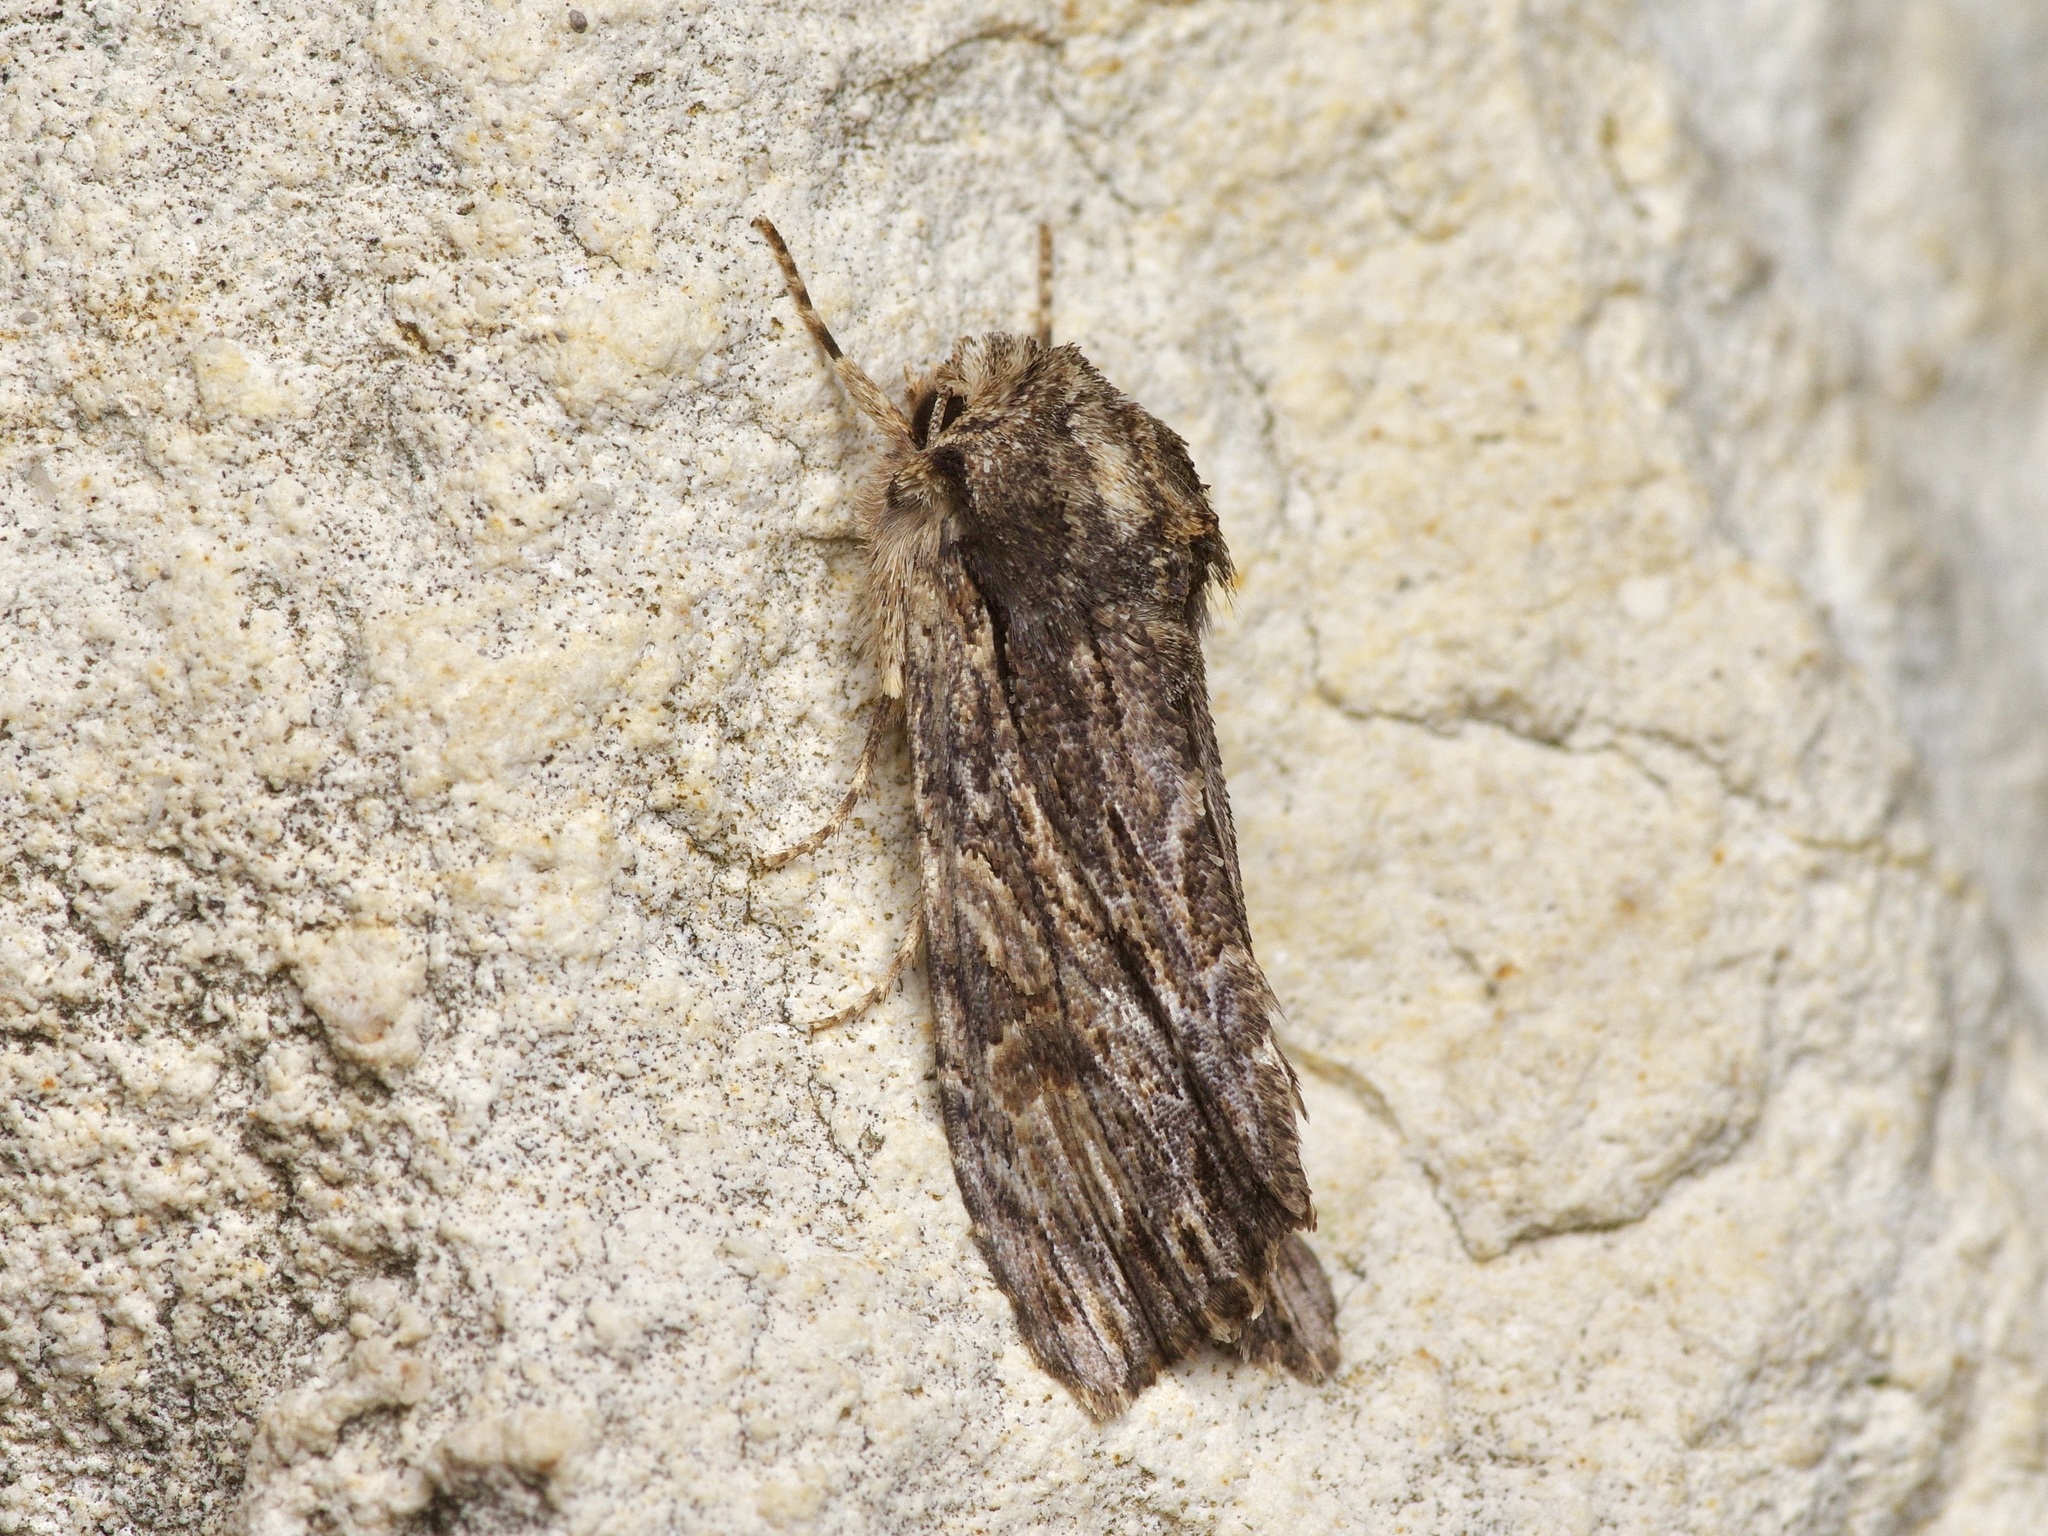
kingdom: Animalia
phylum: Arthropoda
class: Insecta
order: Lepidoptera
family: Noctuidae
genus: Achatia
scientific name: Achatia mucens
